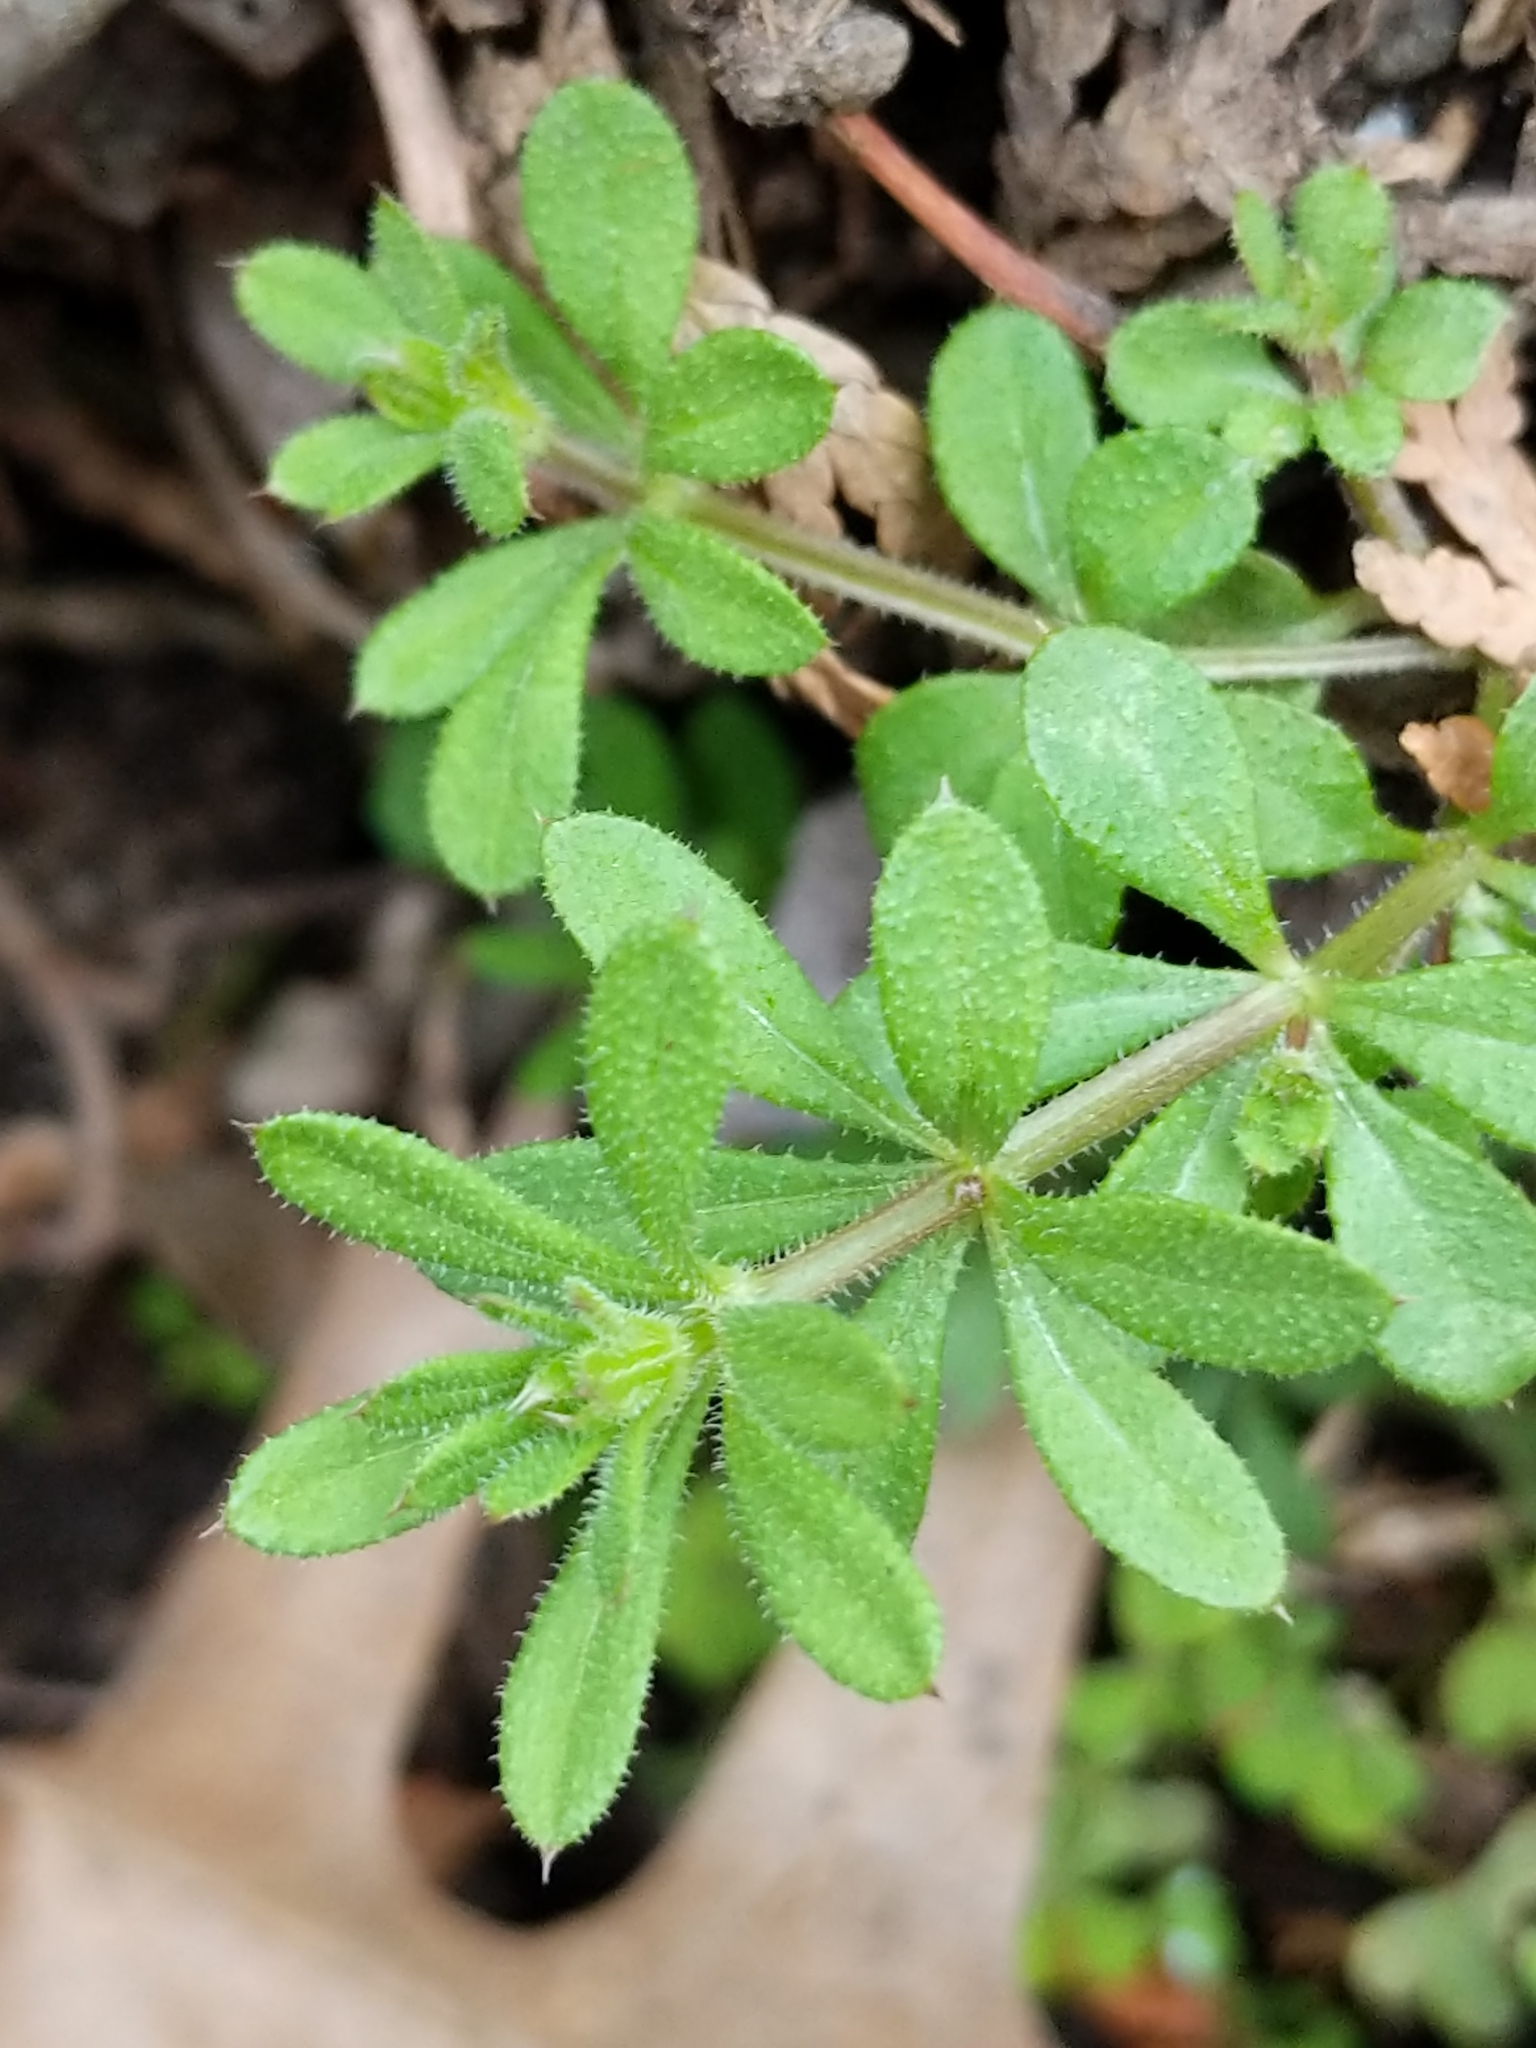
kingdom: Plantae
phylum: Tracheophyta
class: Magnoliopsida
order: Gentianales
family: Rubiaceae
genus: Galium
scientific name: Galium aparine
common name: Cleavers
